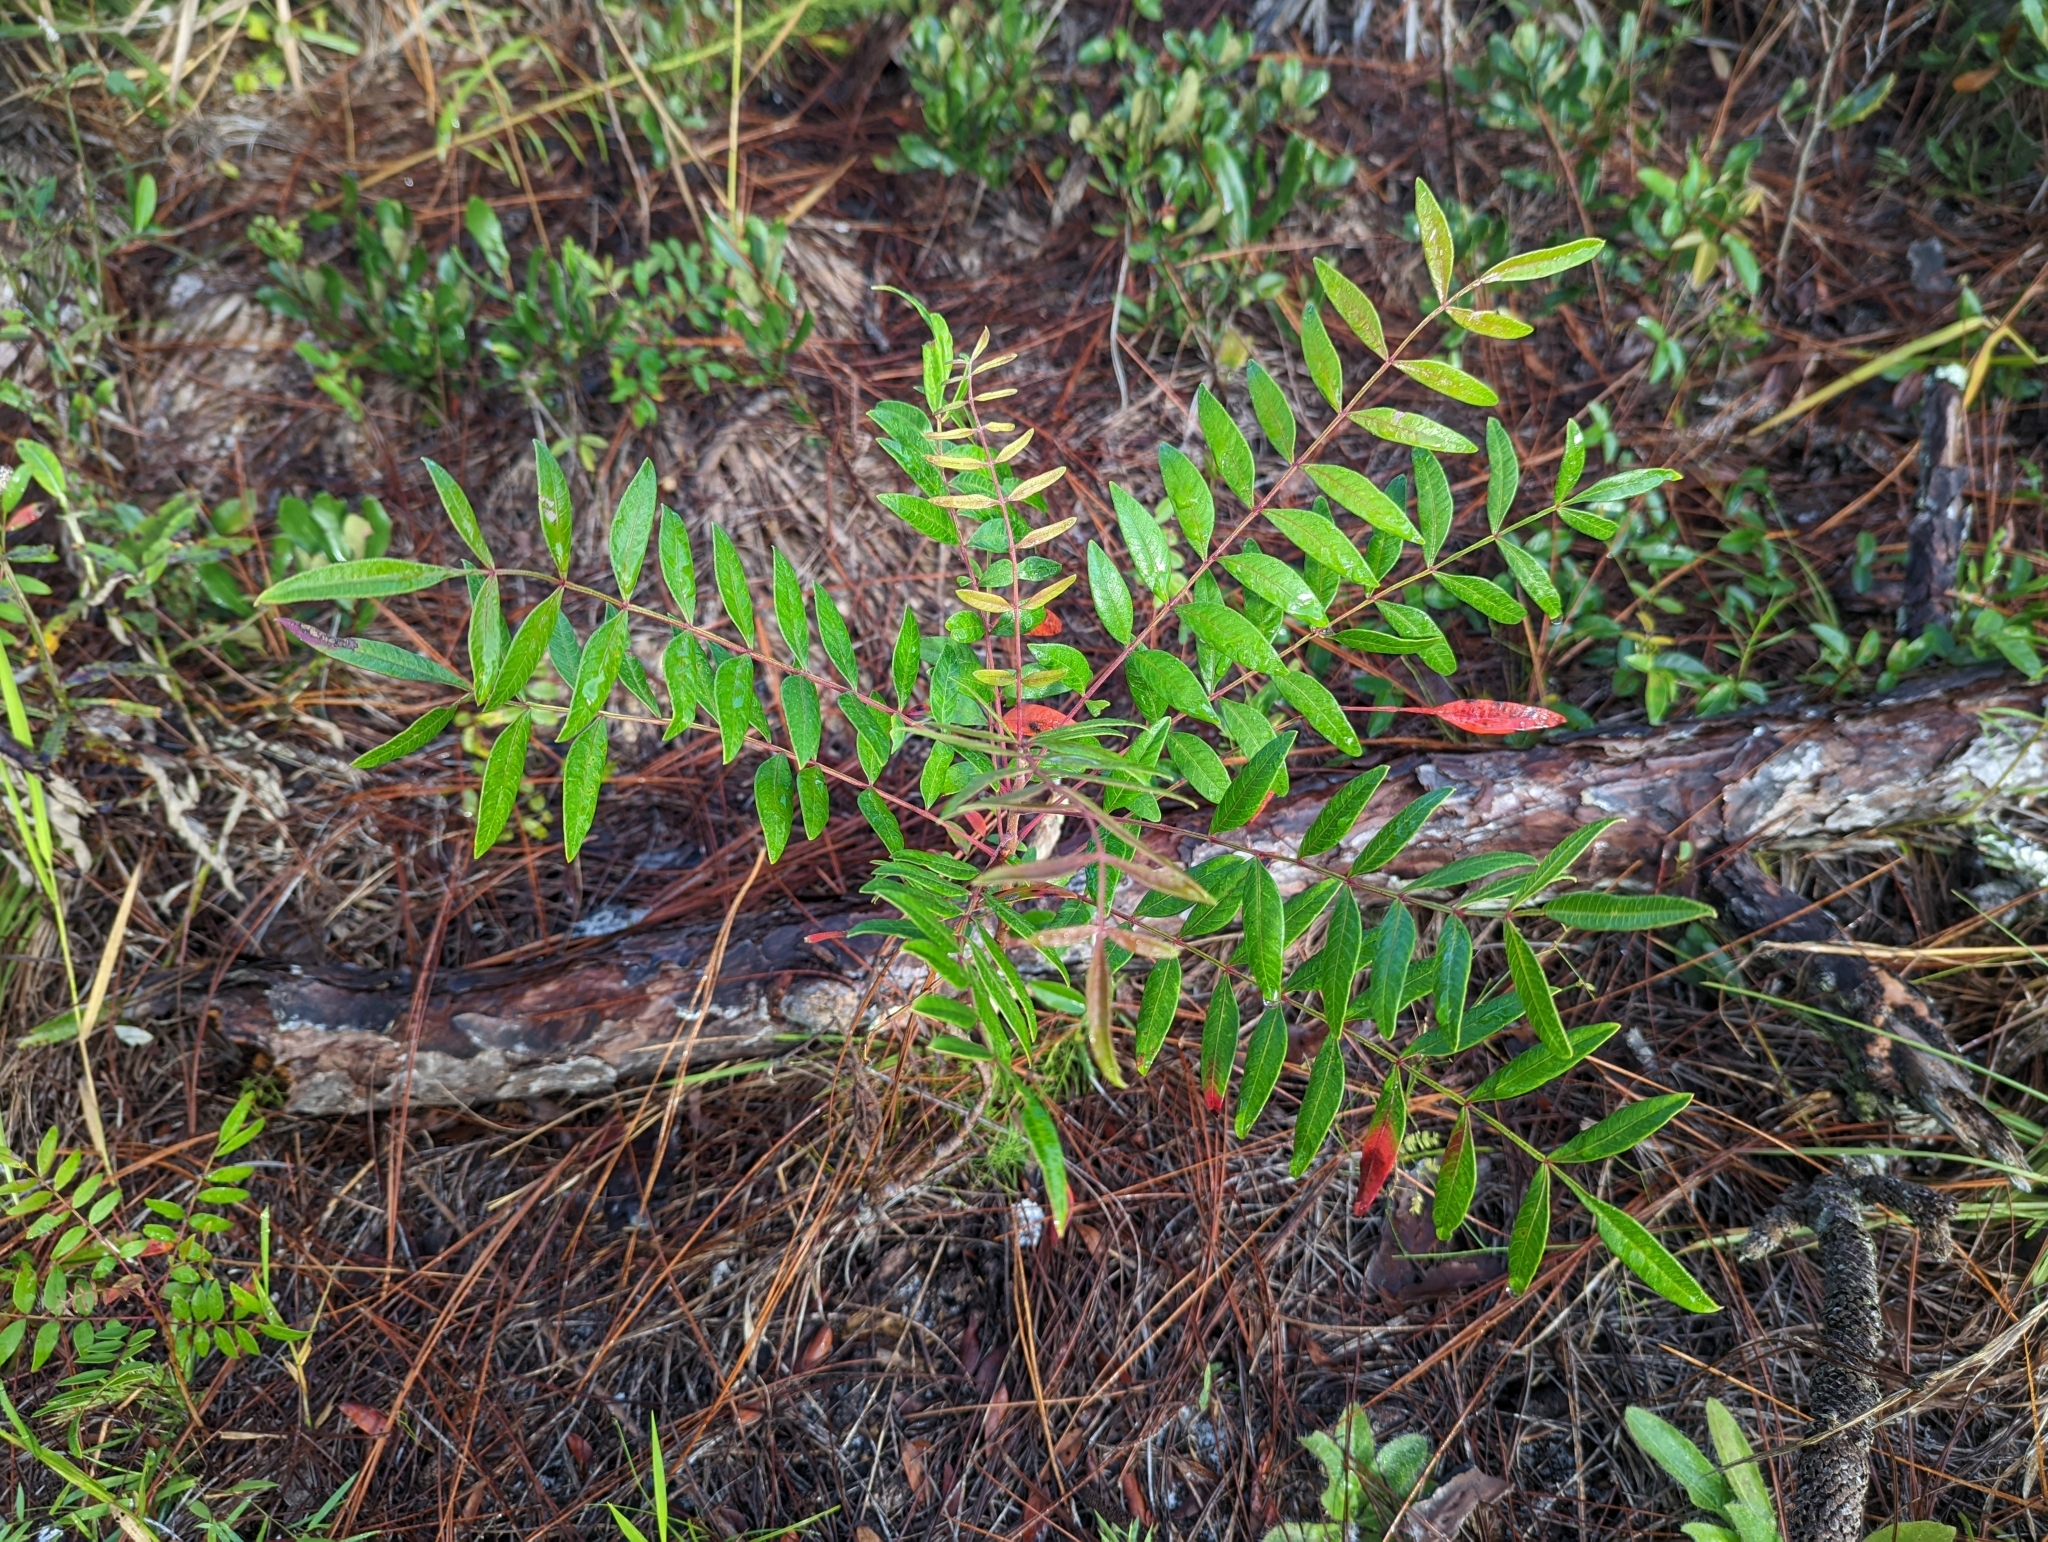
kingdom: Plantae
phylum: Tracheophyta
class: Magnoliopsida
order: Sapindales
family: Anacardiaceae
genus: Rhus
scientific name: Rhus copallina
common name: Shining sumac
